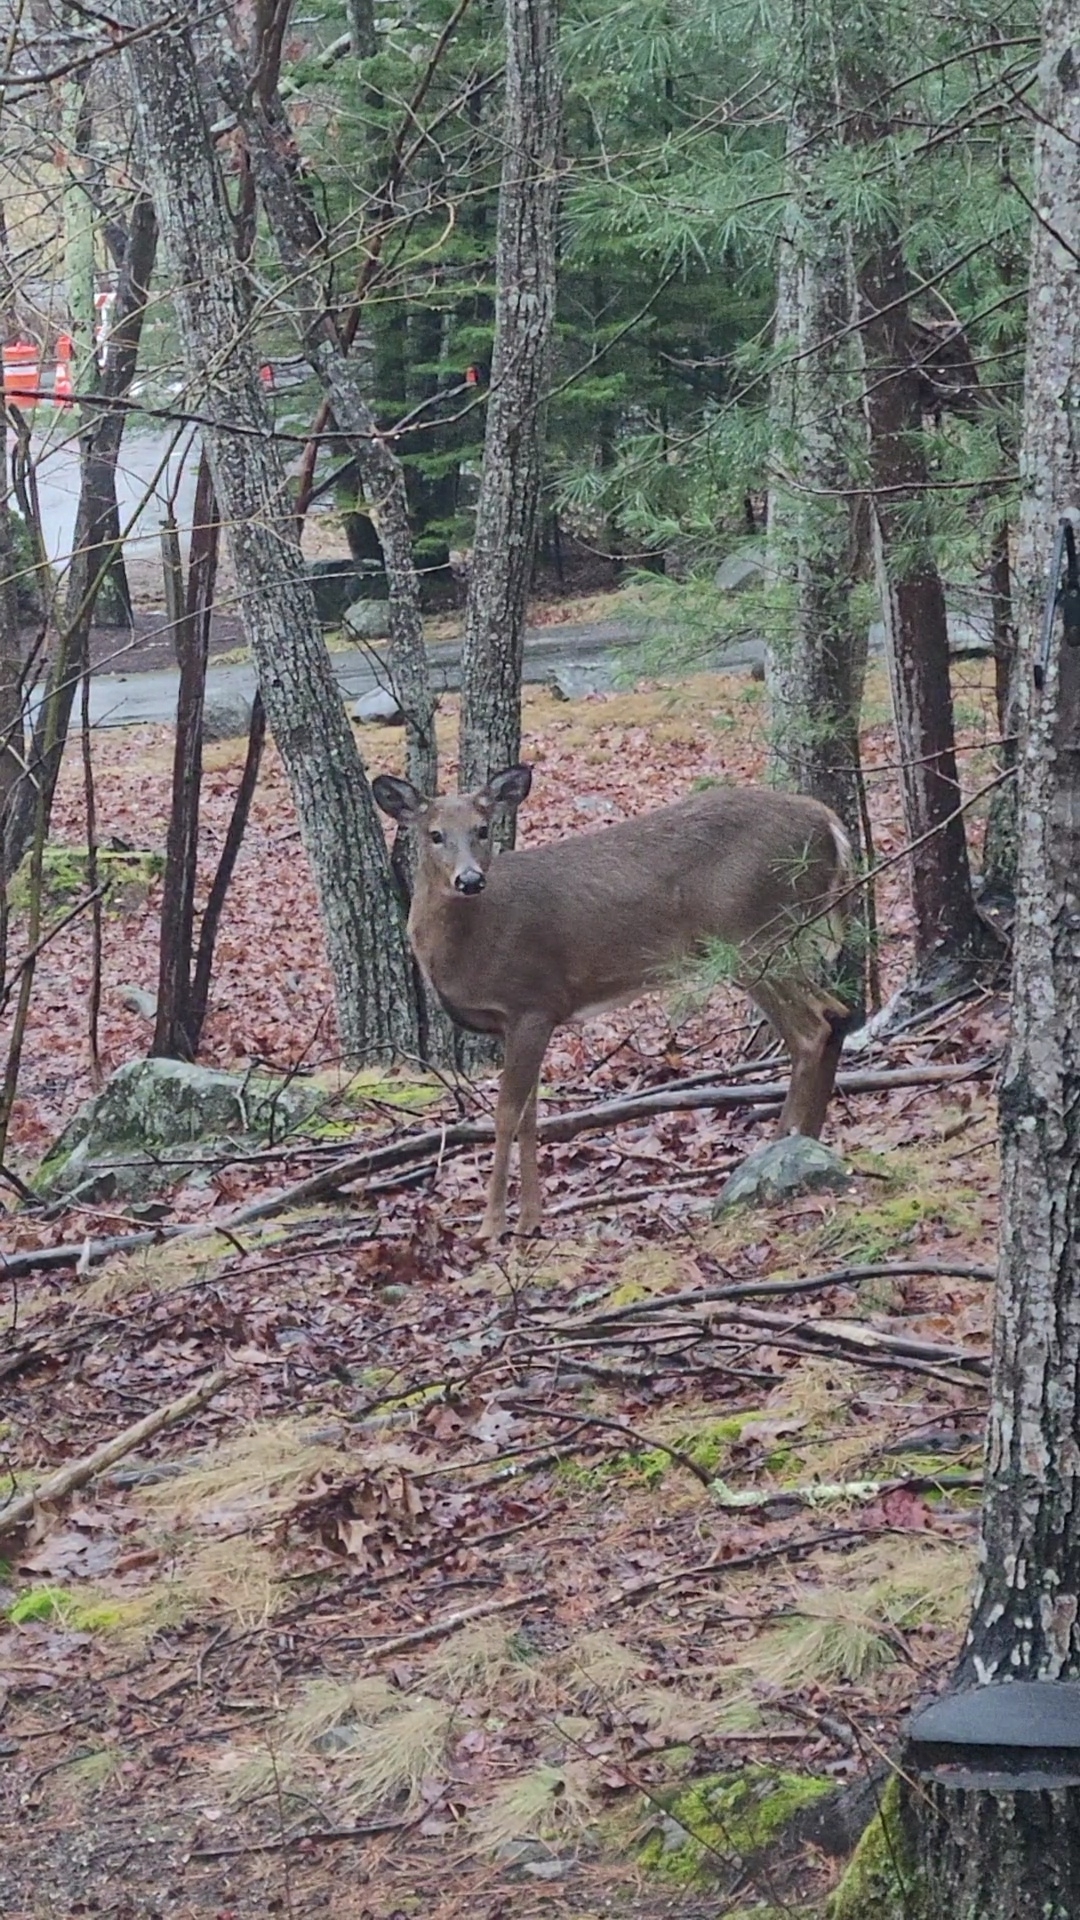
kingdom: Animalia
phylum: Chordata
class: Mammalia
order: Artiodactyla
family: Cervidae
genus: Odocoileus
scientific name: Odocoileus virginianus
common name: White-tailed deer
